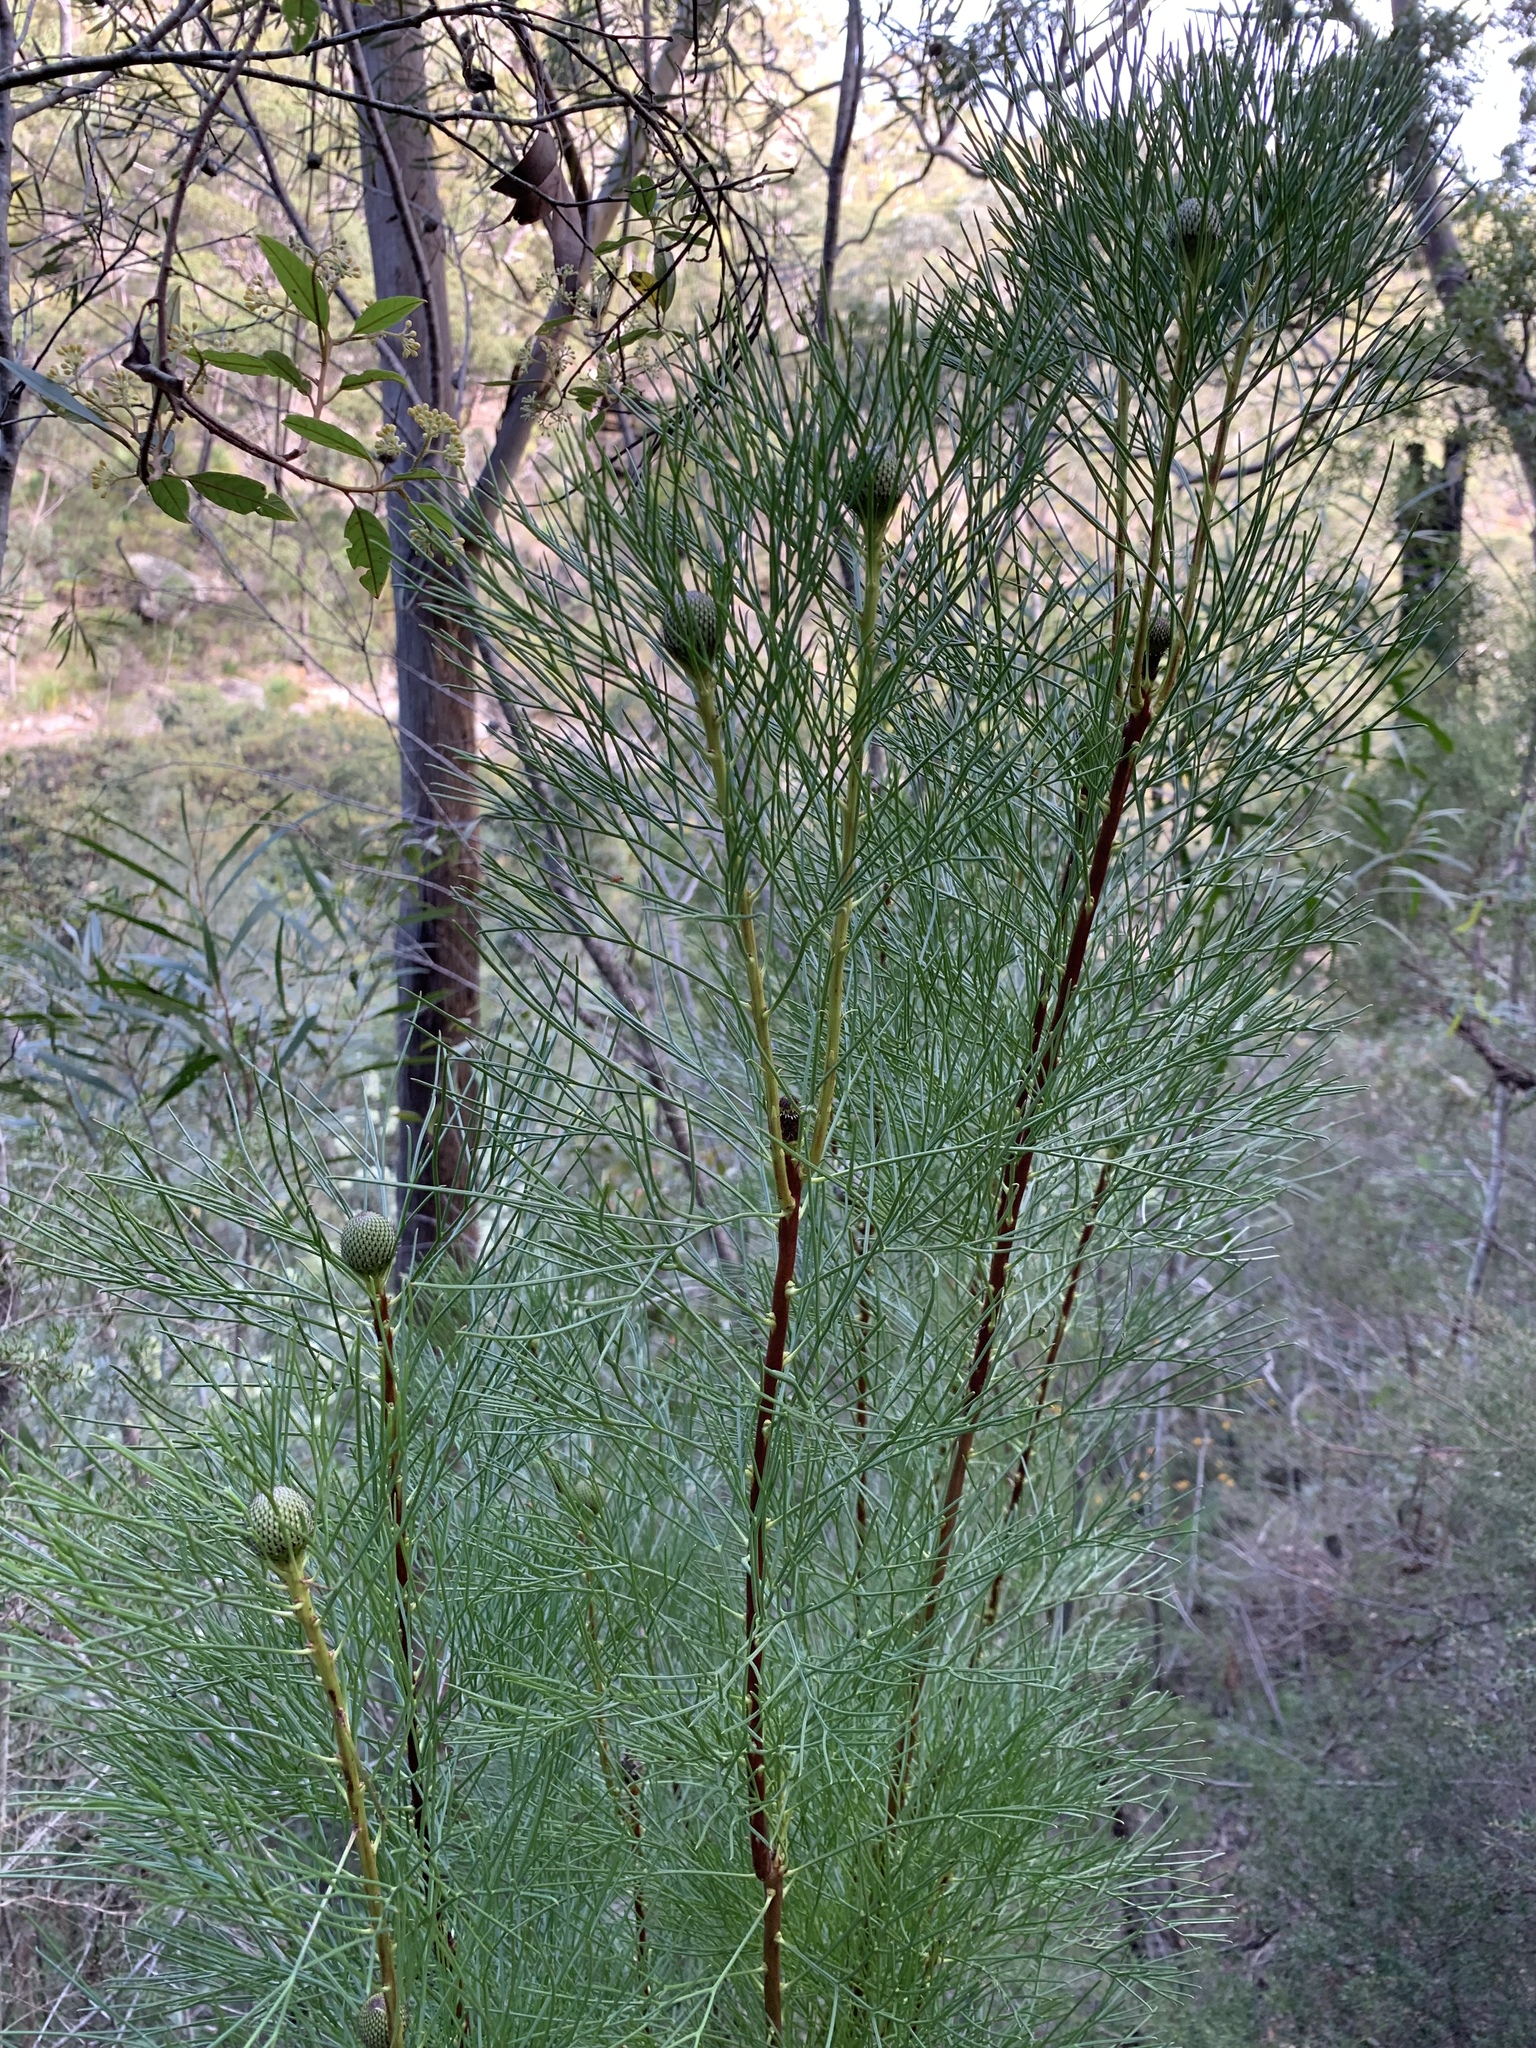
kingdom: Plantae
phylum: Tracheophyta
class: Magnoliopsida
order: Proteales
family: Proteaceae
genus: Isopogon
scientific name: Isopogon anethifolius
